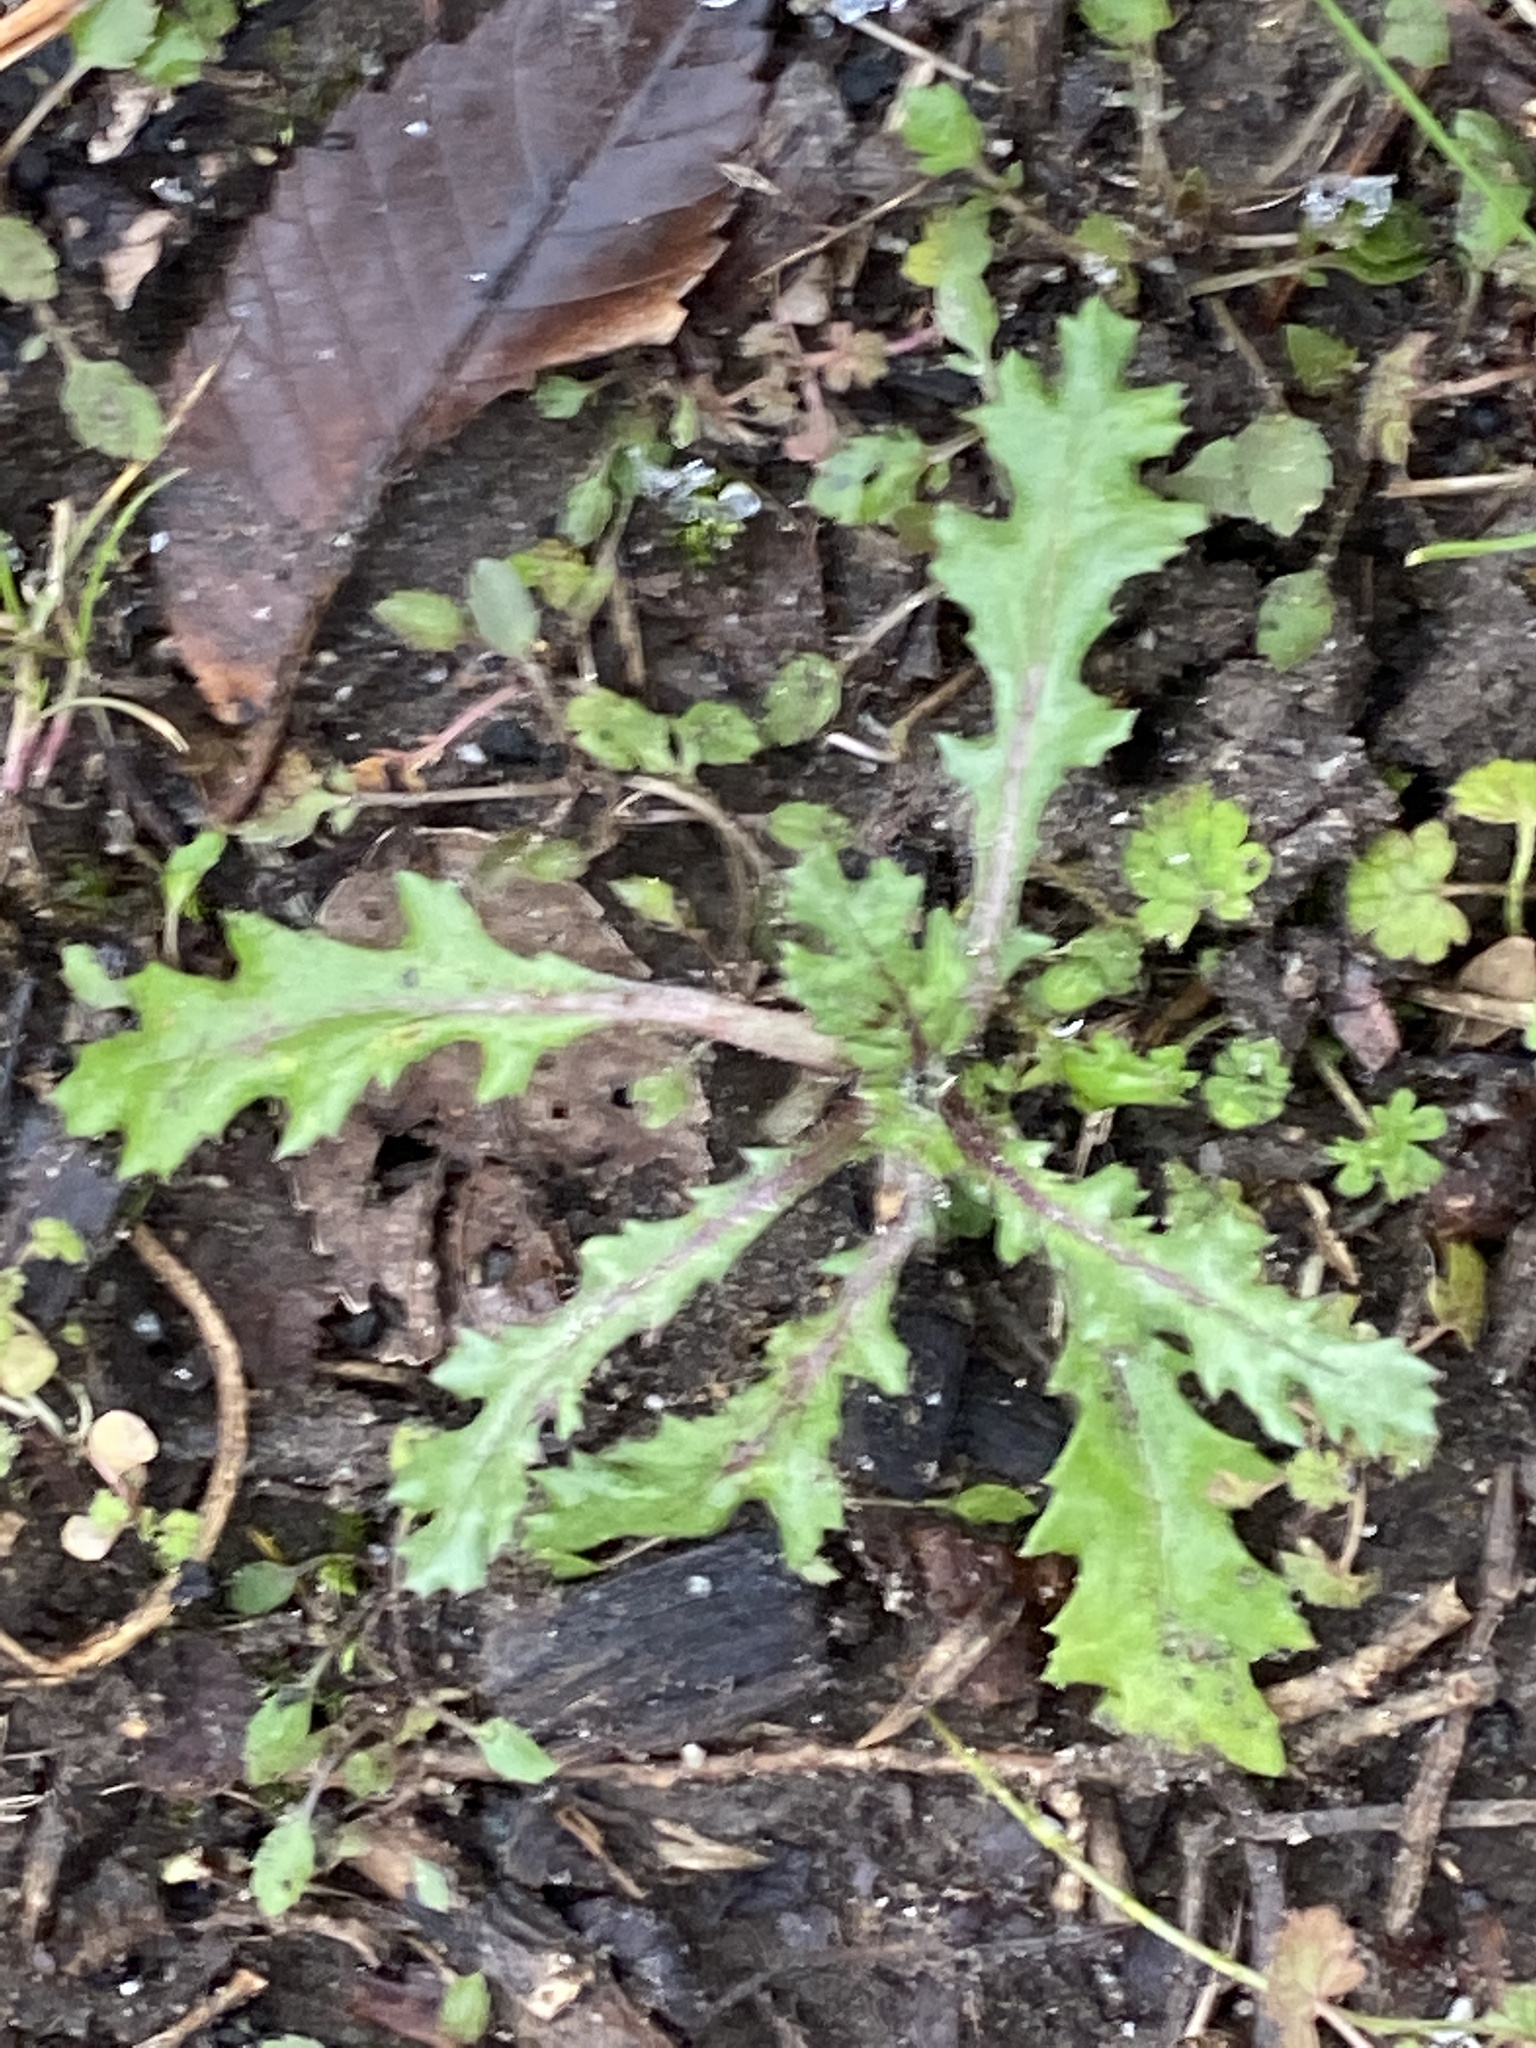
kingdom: Plantae
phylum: Tracheophyta
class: Magnoliopsida
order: Asterales
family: Asteraceae
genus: Senecio
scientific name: Senecio vulgaris
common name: Old-man-in-the-spring
